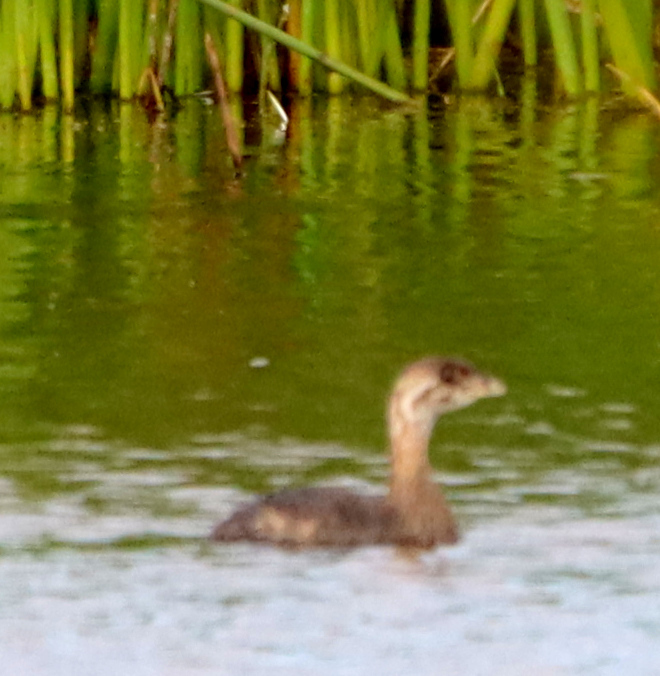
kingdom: Animalia
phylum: Chordata
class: Aves
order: Podicipediformes
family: Podicipedidae
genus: Podilymbus
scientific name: Podilymbus podiceps
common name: Pied-billed grebe
